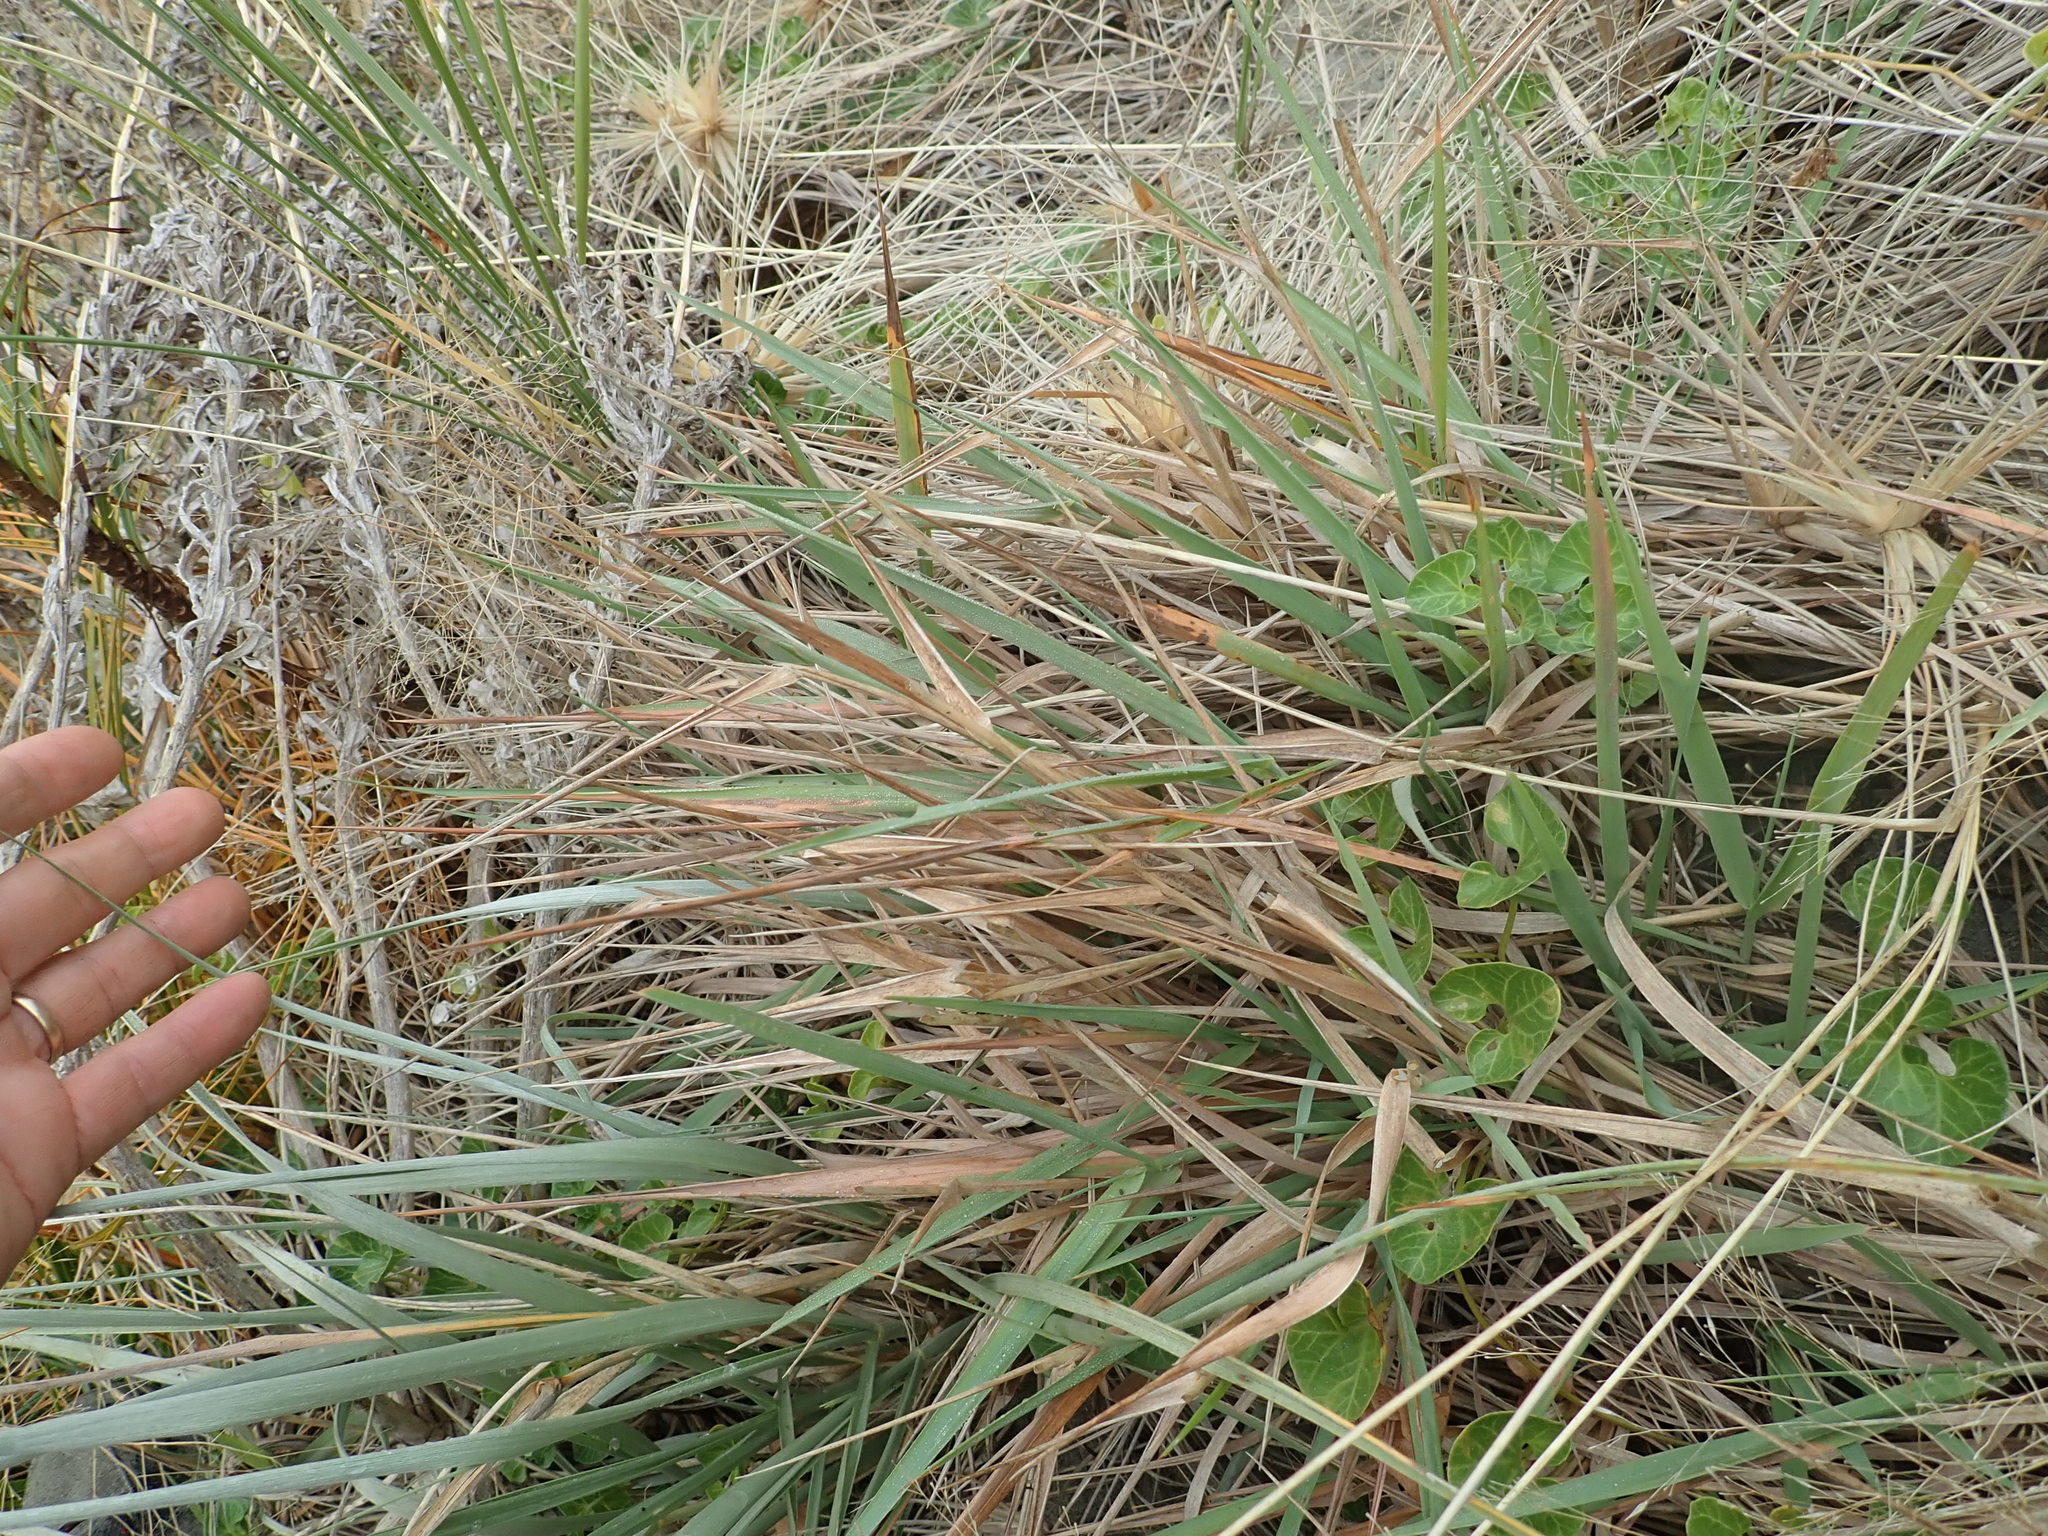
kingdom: Plantae
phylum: Tracheophyta
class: Liliopsida
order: Poales
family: Poaceae
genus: Lachnagrostis
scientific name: Lachnagrostis billardierei
